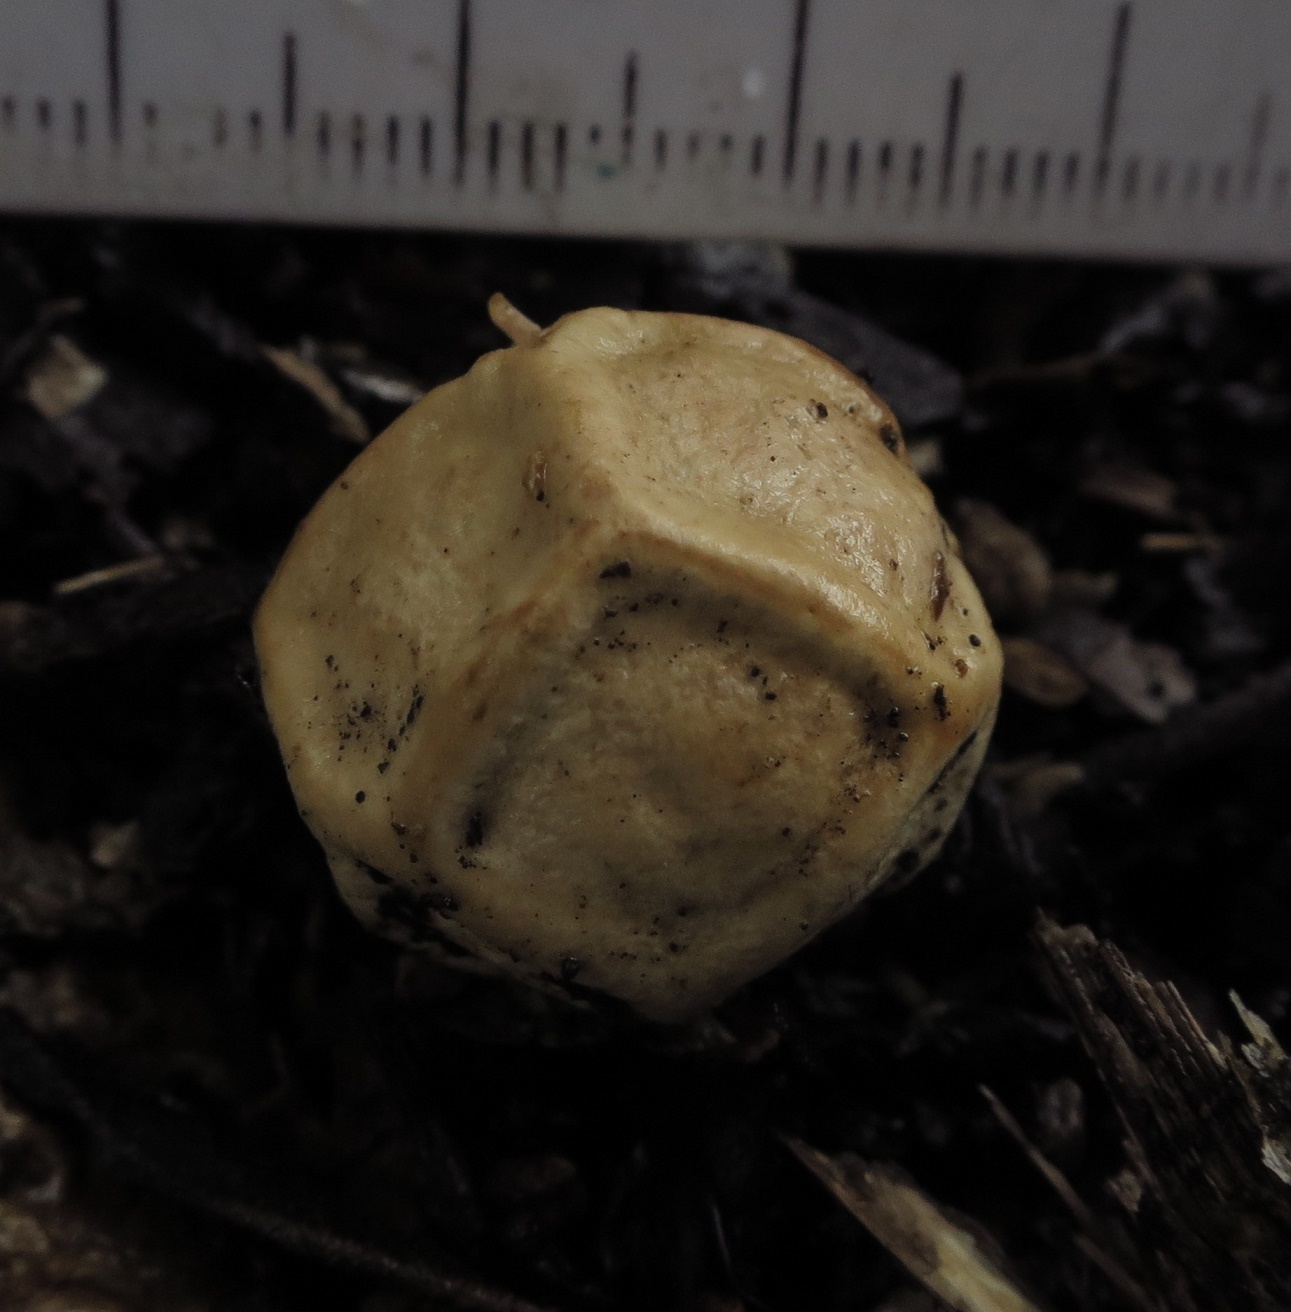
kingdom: Fungi
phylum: Basidiomycota
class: Agaricomycetes
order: Phallales
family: Phallaceae
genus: Ileodictyon
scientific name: Ileodictyon cibarium
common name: Basket fungus
